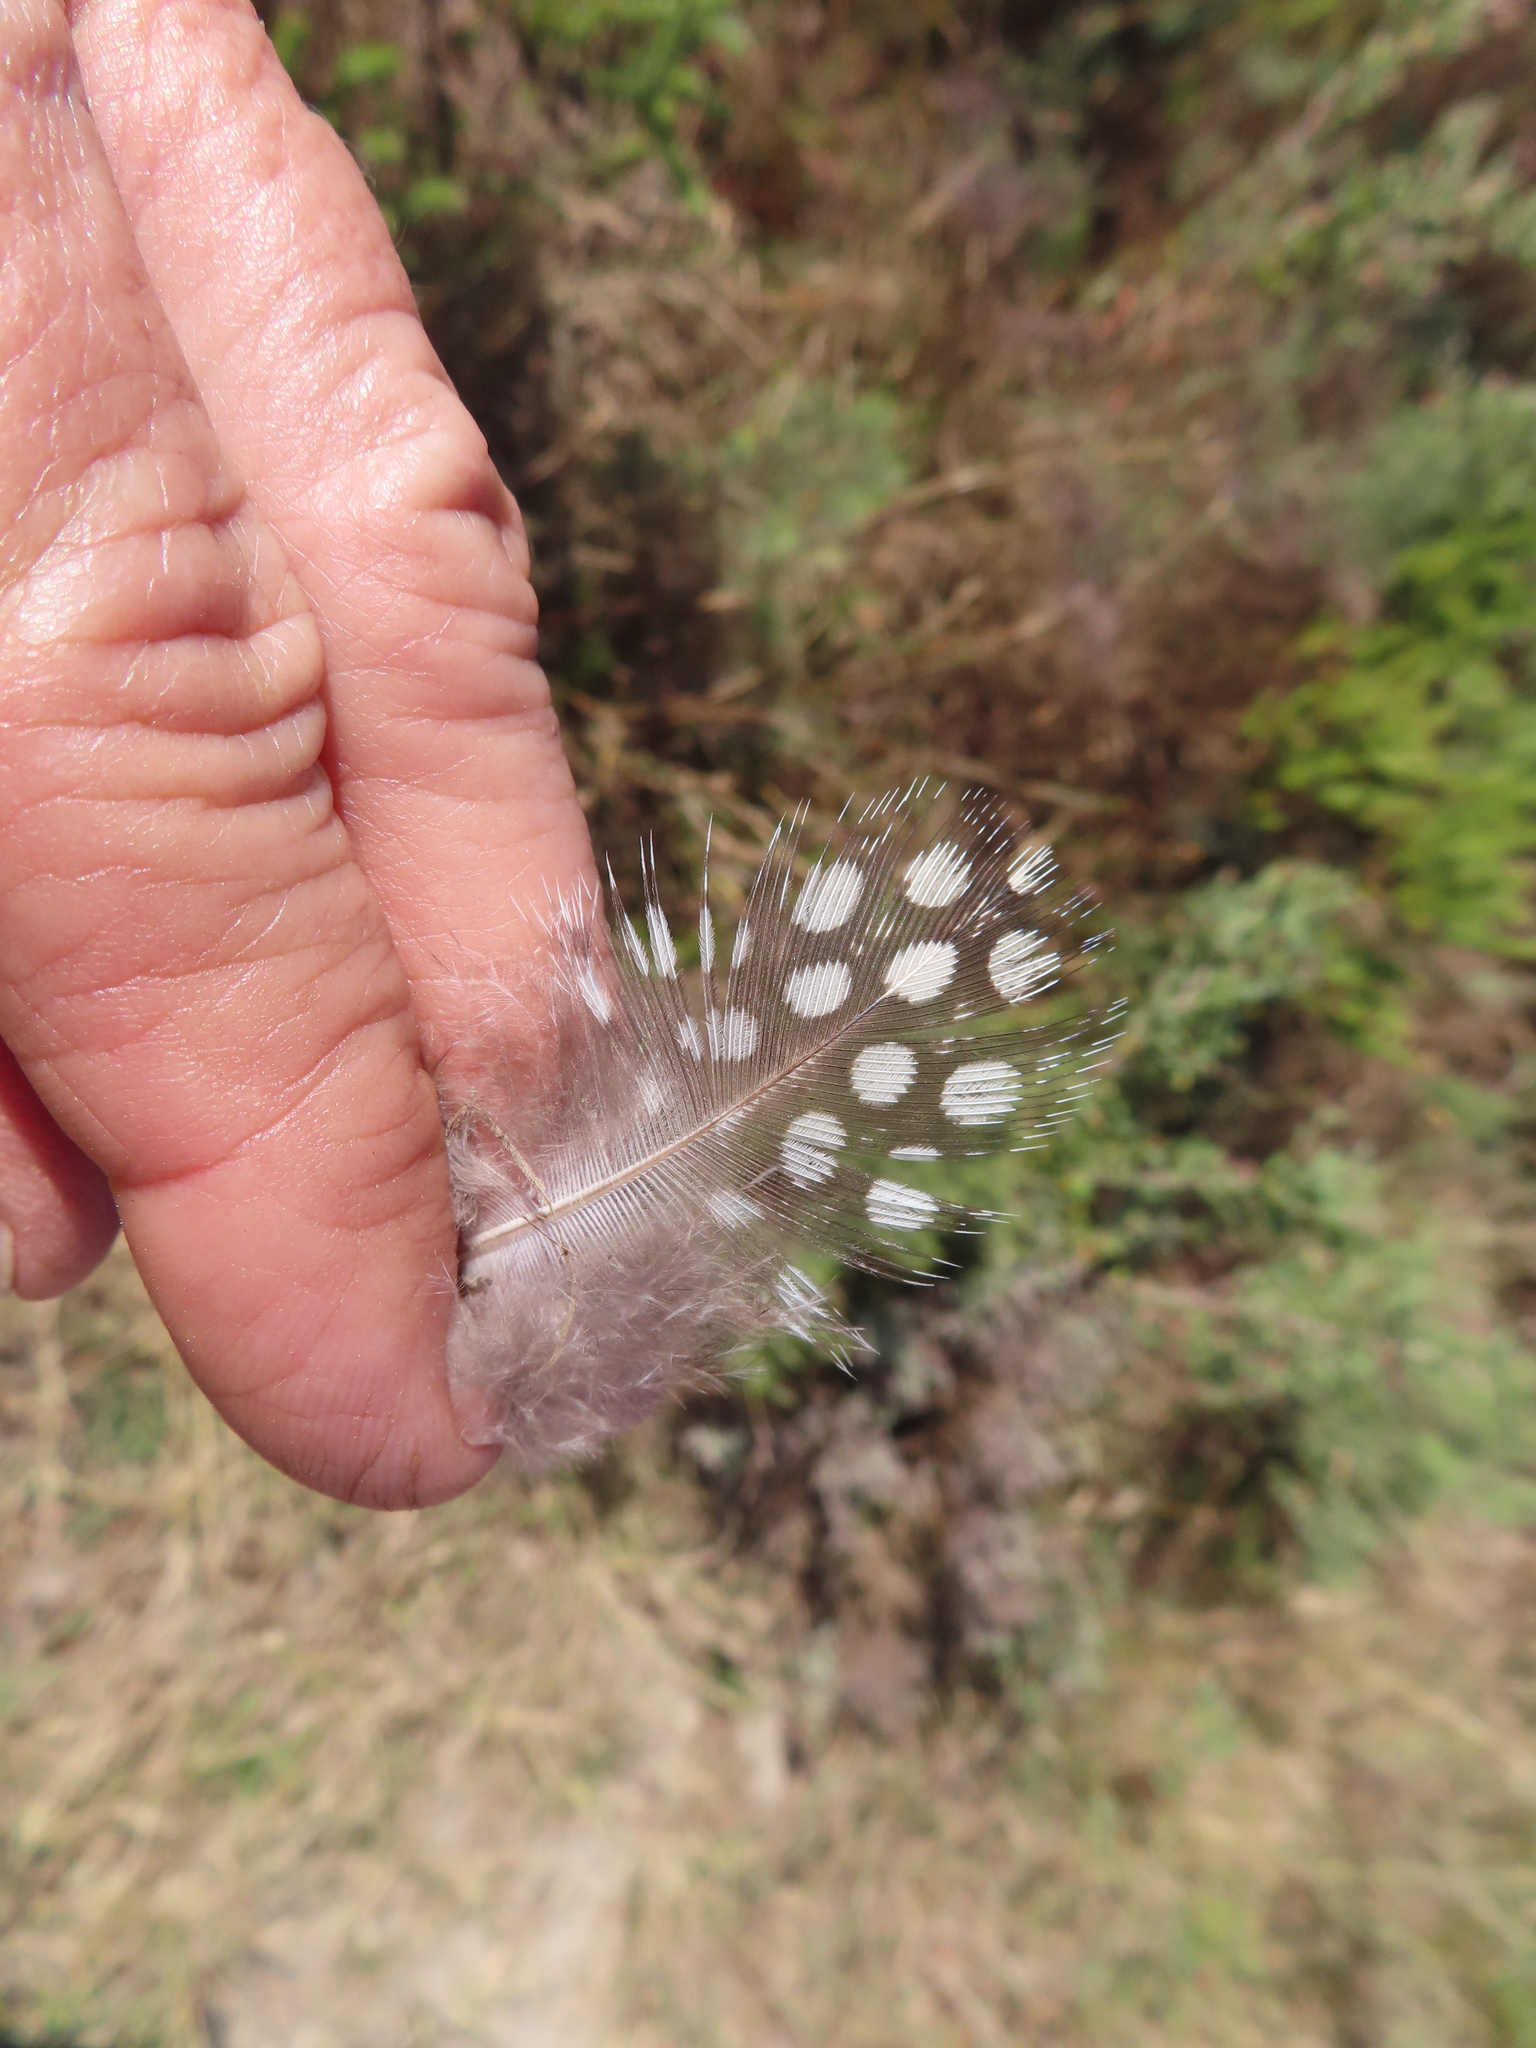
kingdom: Animalia
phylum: Chordata
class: Aves
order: Galliformes
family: Numididae
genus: Numida
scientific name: Numida meleagris
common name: Helmeted guineafowl
